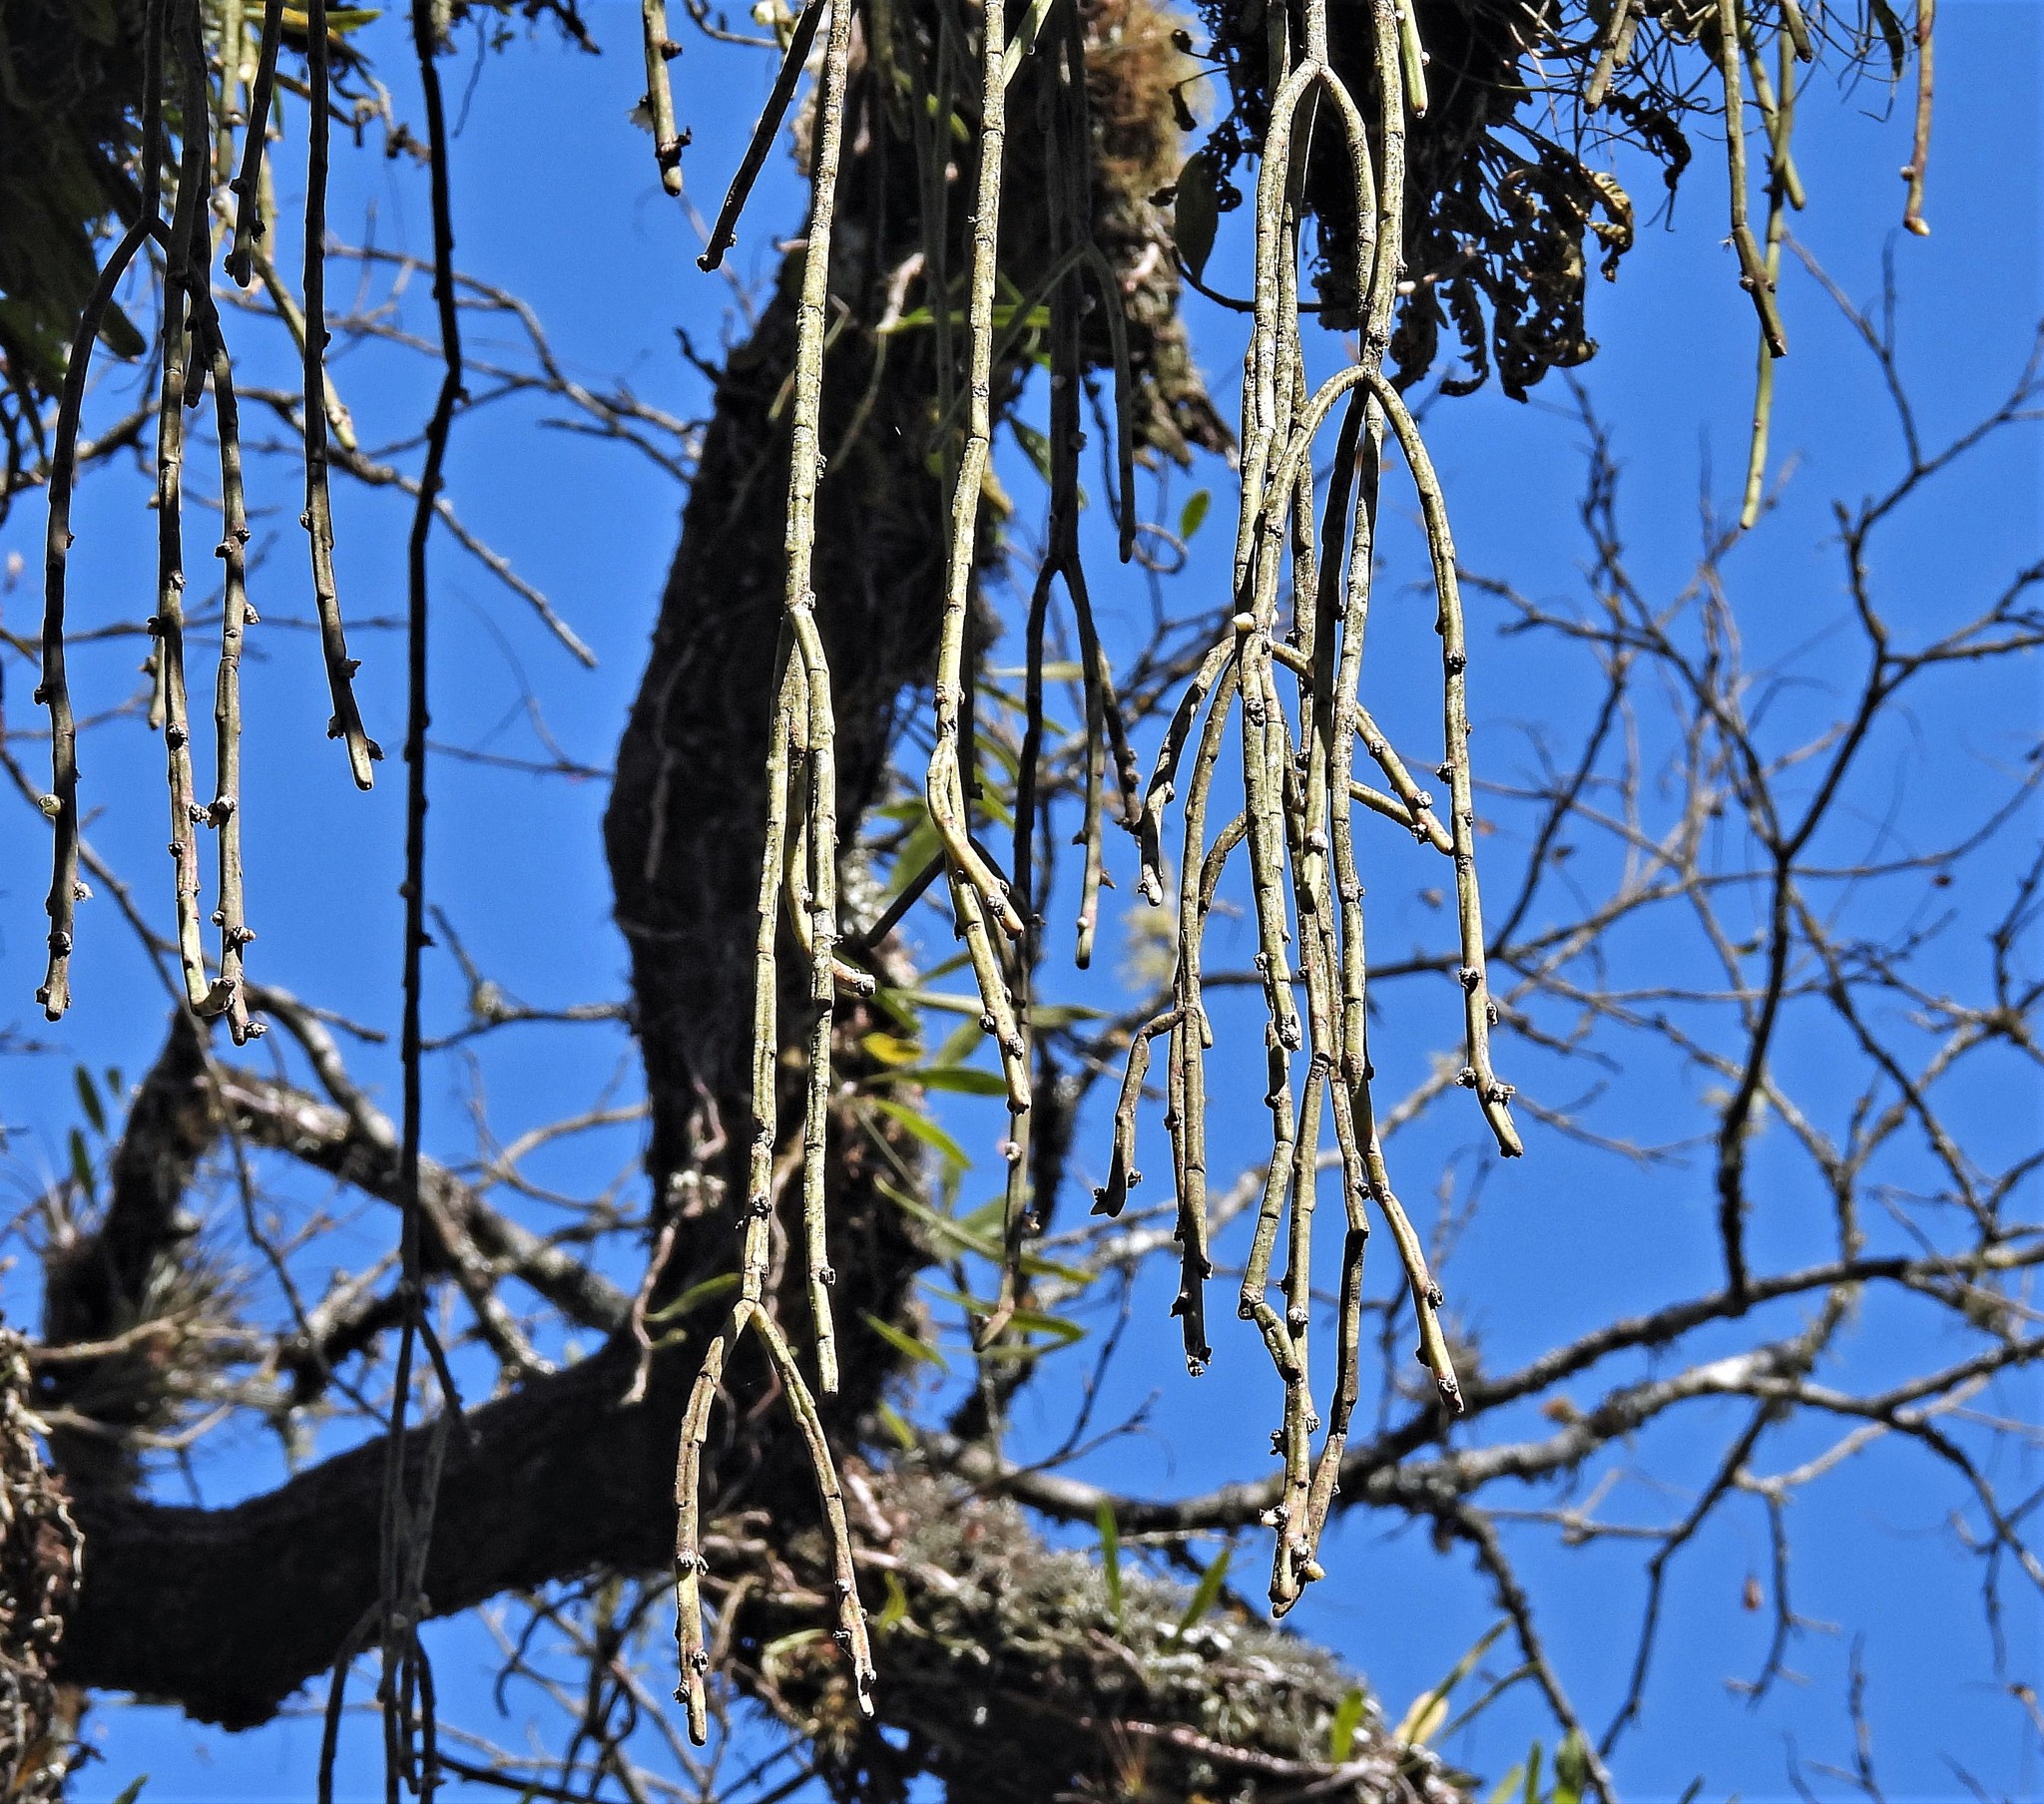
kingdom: Plantae
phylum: Tracheophyta
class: Magnoliopsida
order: Caryophyllales
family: Cactaceae
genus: Rhipsalis
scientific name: Rhipsalis floccosa
